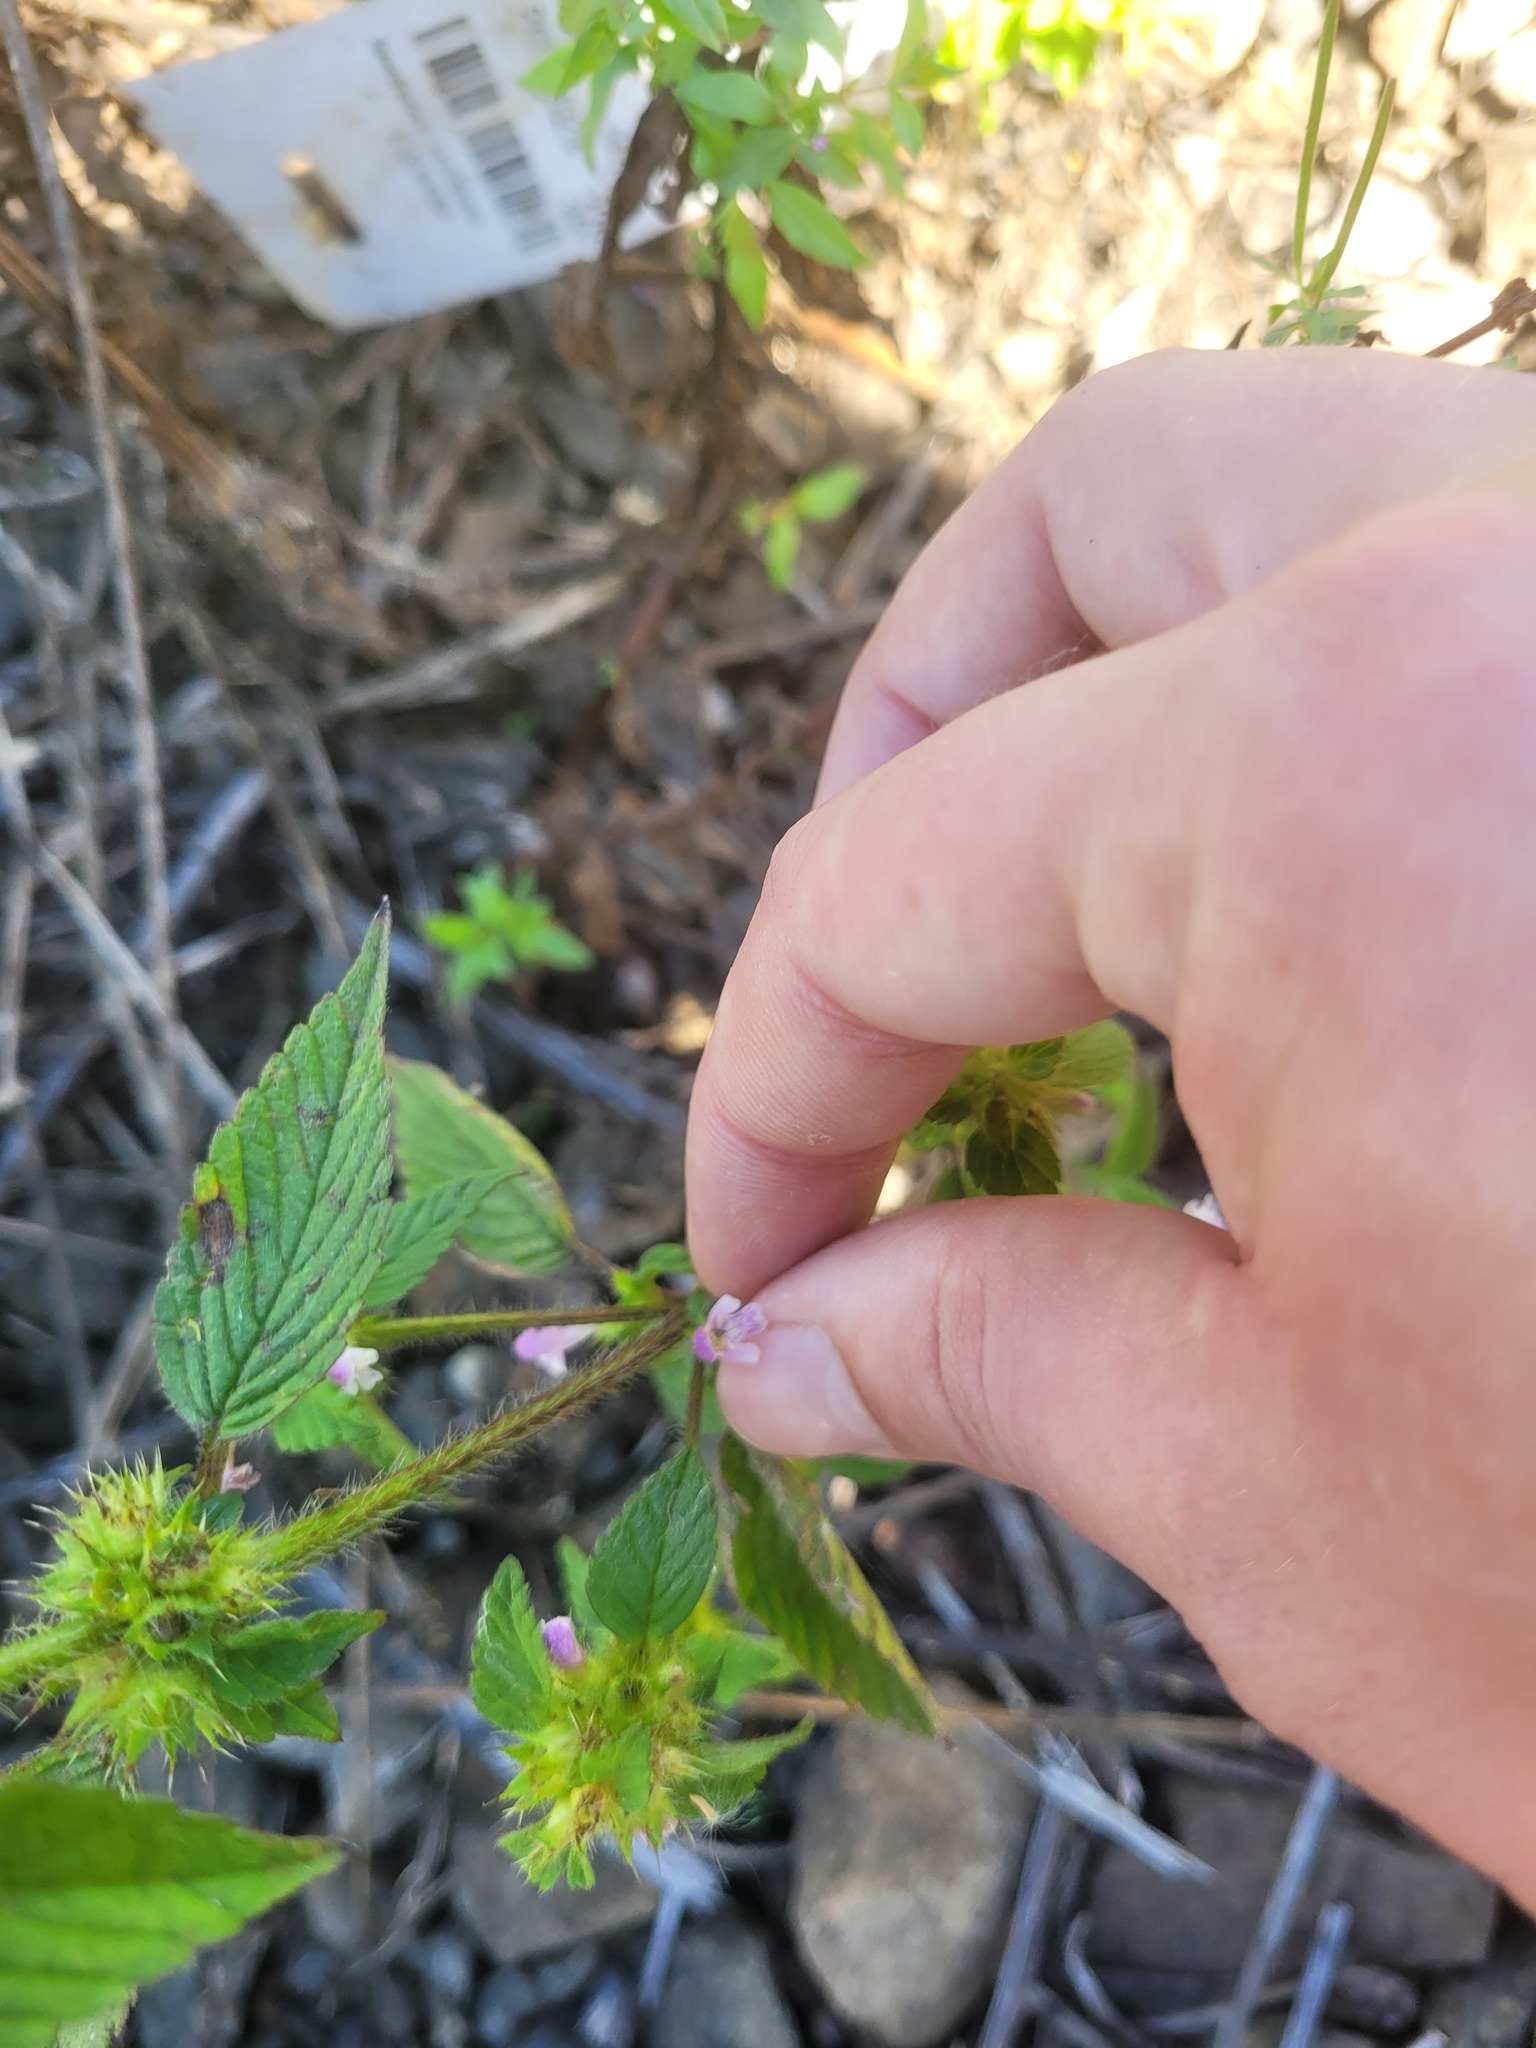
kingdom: Plantae
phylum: Tracheophyta
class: Magnoliopsida
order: Lamiales
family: Lamiaceae
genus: Galeopsis
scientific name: Galeopsis bifida
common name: Bifid hemp-nettle
